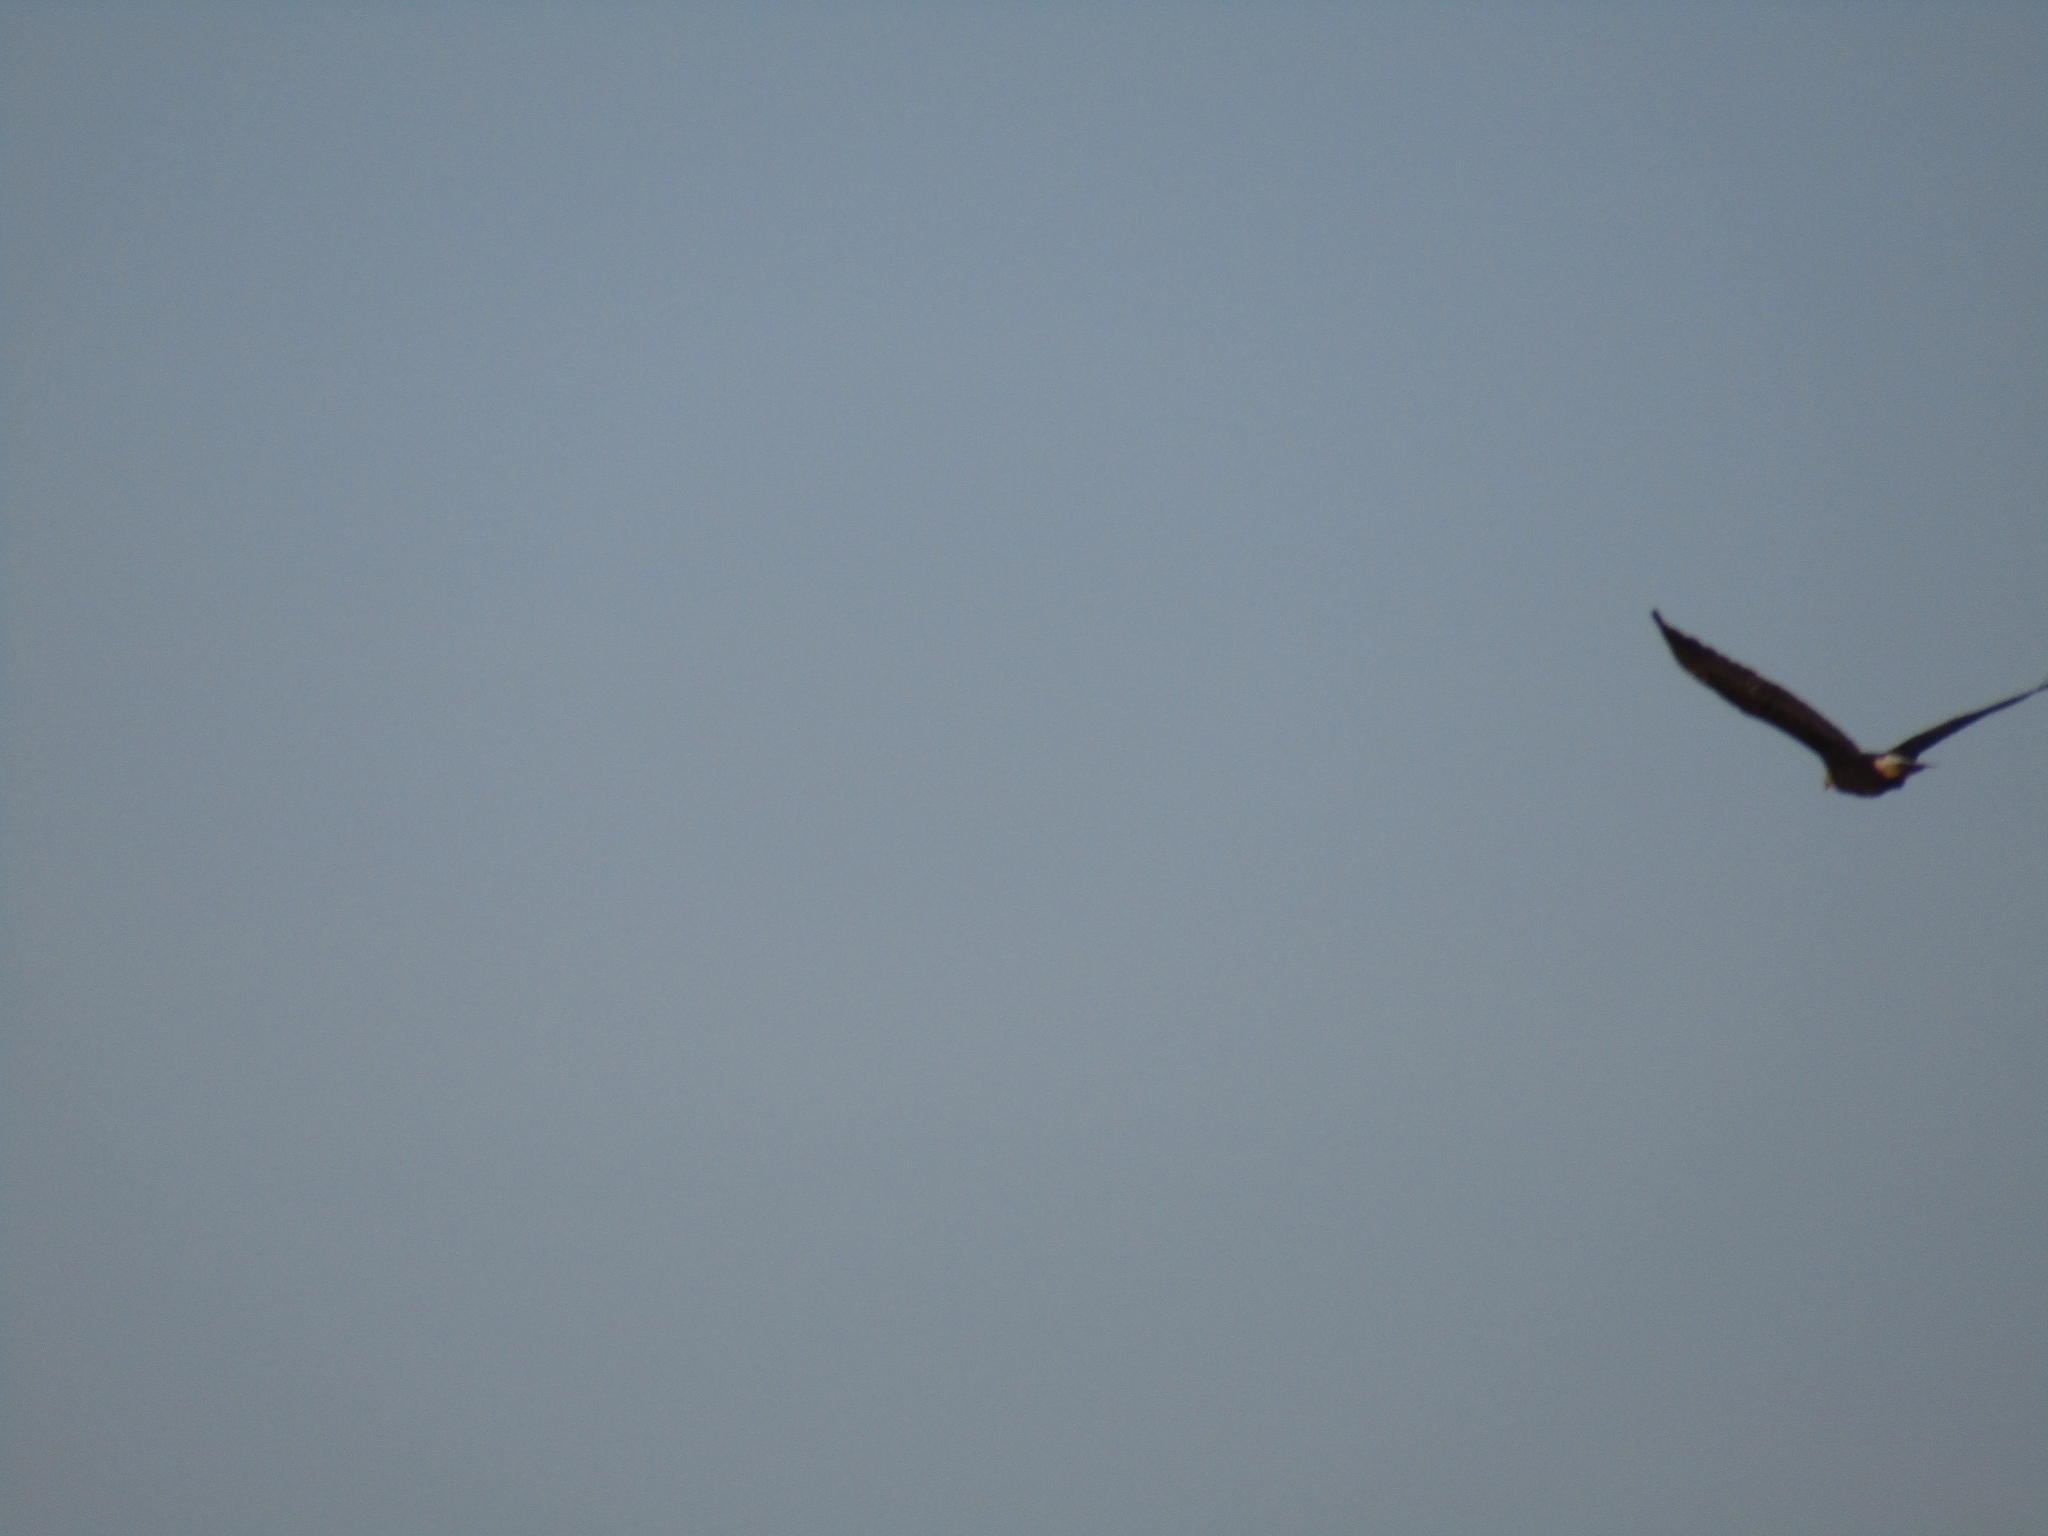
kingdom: Animalia
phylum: Chordata
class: Aves
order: Accipitriformes
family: Accipitridae
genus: Haliaeetus
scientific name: Haliaeetus leucocephalus
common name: Bald eagle
